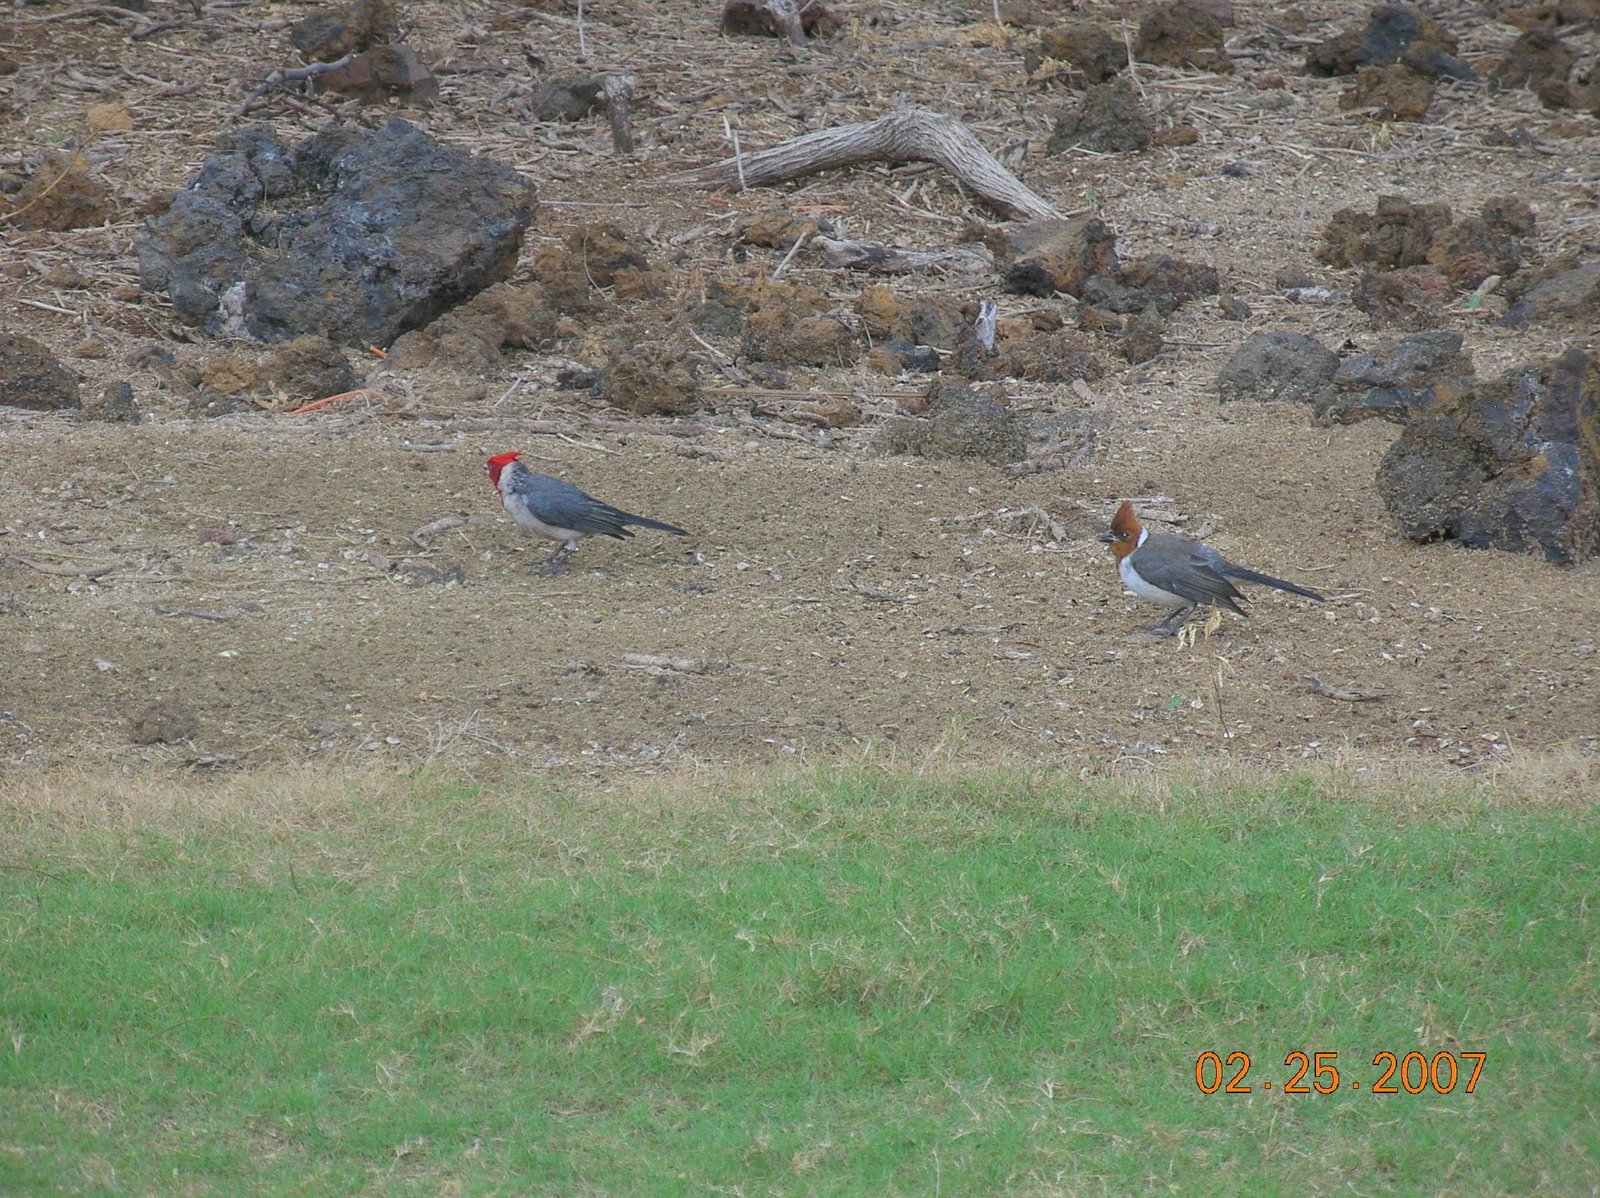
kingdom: Animalia
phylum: Chordata
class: Aves
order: Passeriformes
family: Thraupidae
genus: Paroaria
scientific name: Paroaria coronata
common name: Red-crested cardinal
